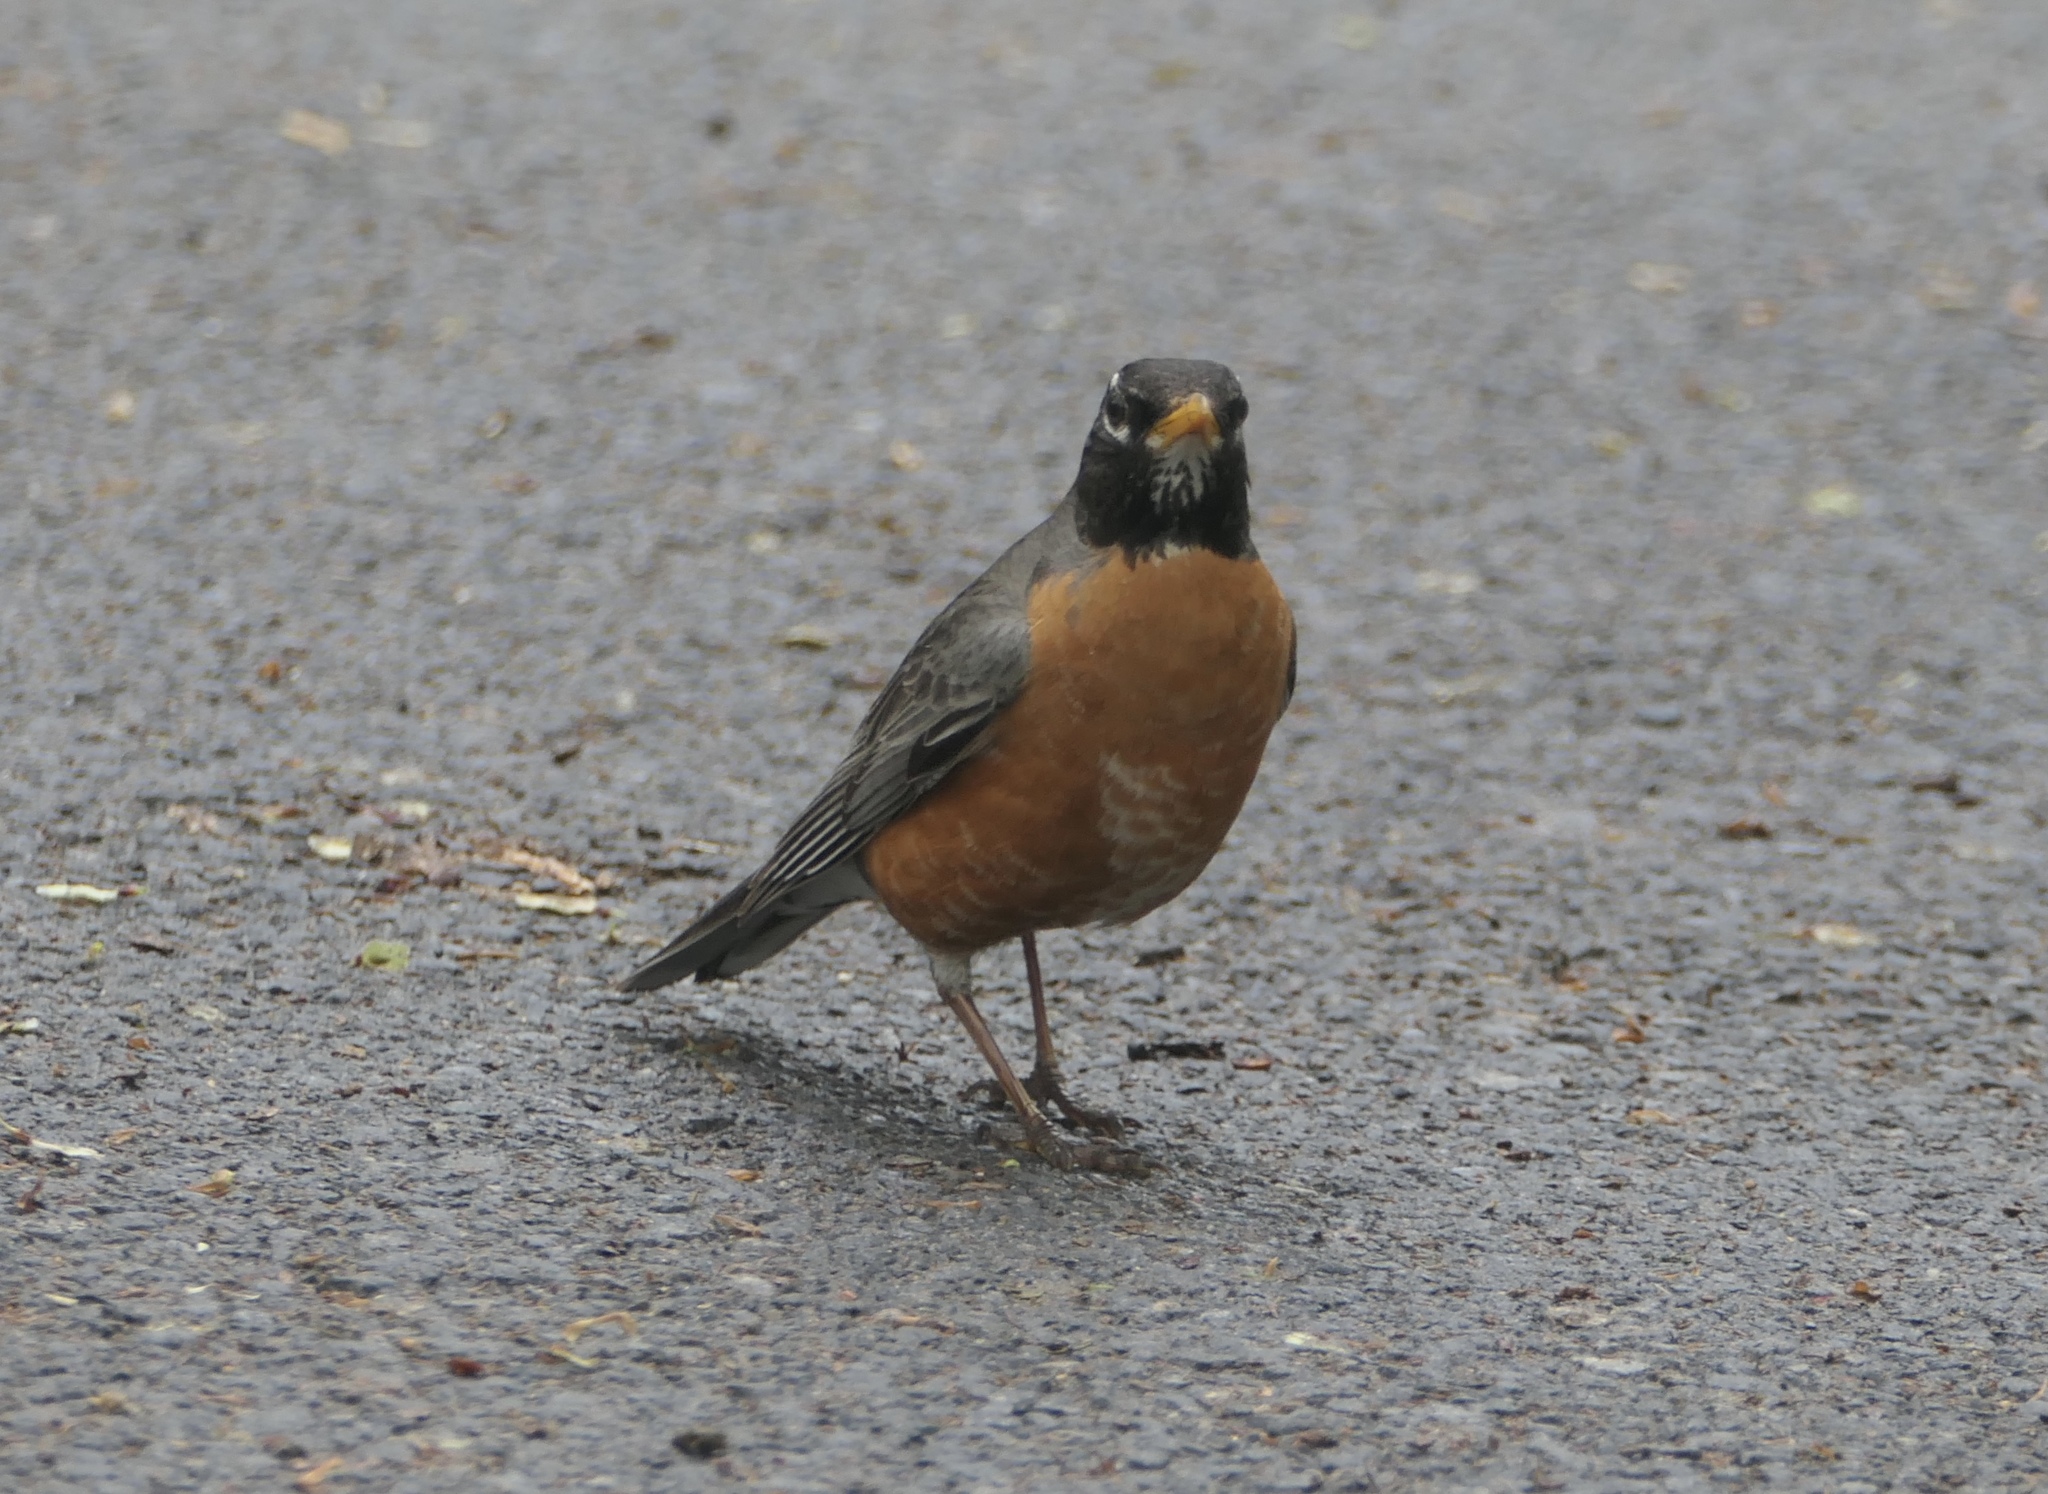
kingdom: Animalia
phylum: Chordata
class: Aves
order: Passeriformes
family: Turdidae
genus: Turdus
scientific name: Turdus migratorius
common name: American robin
